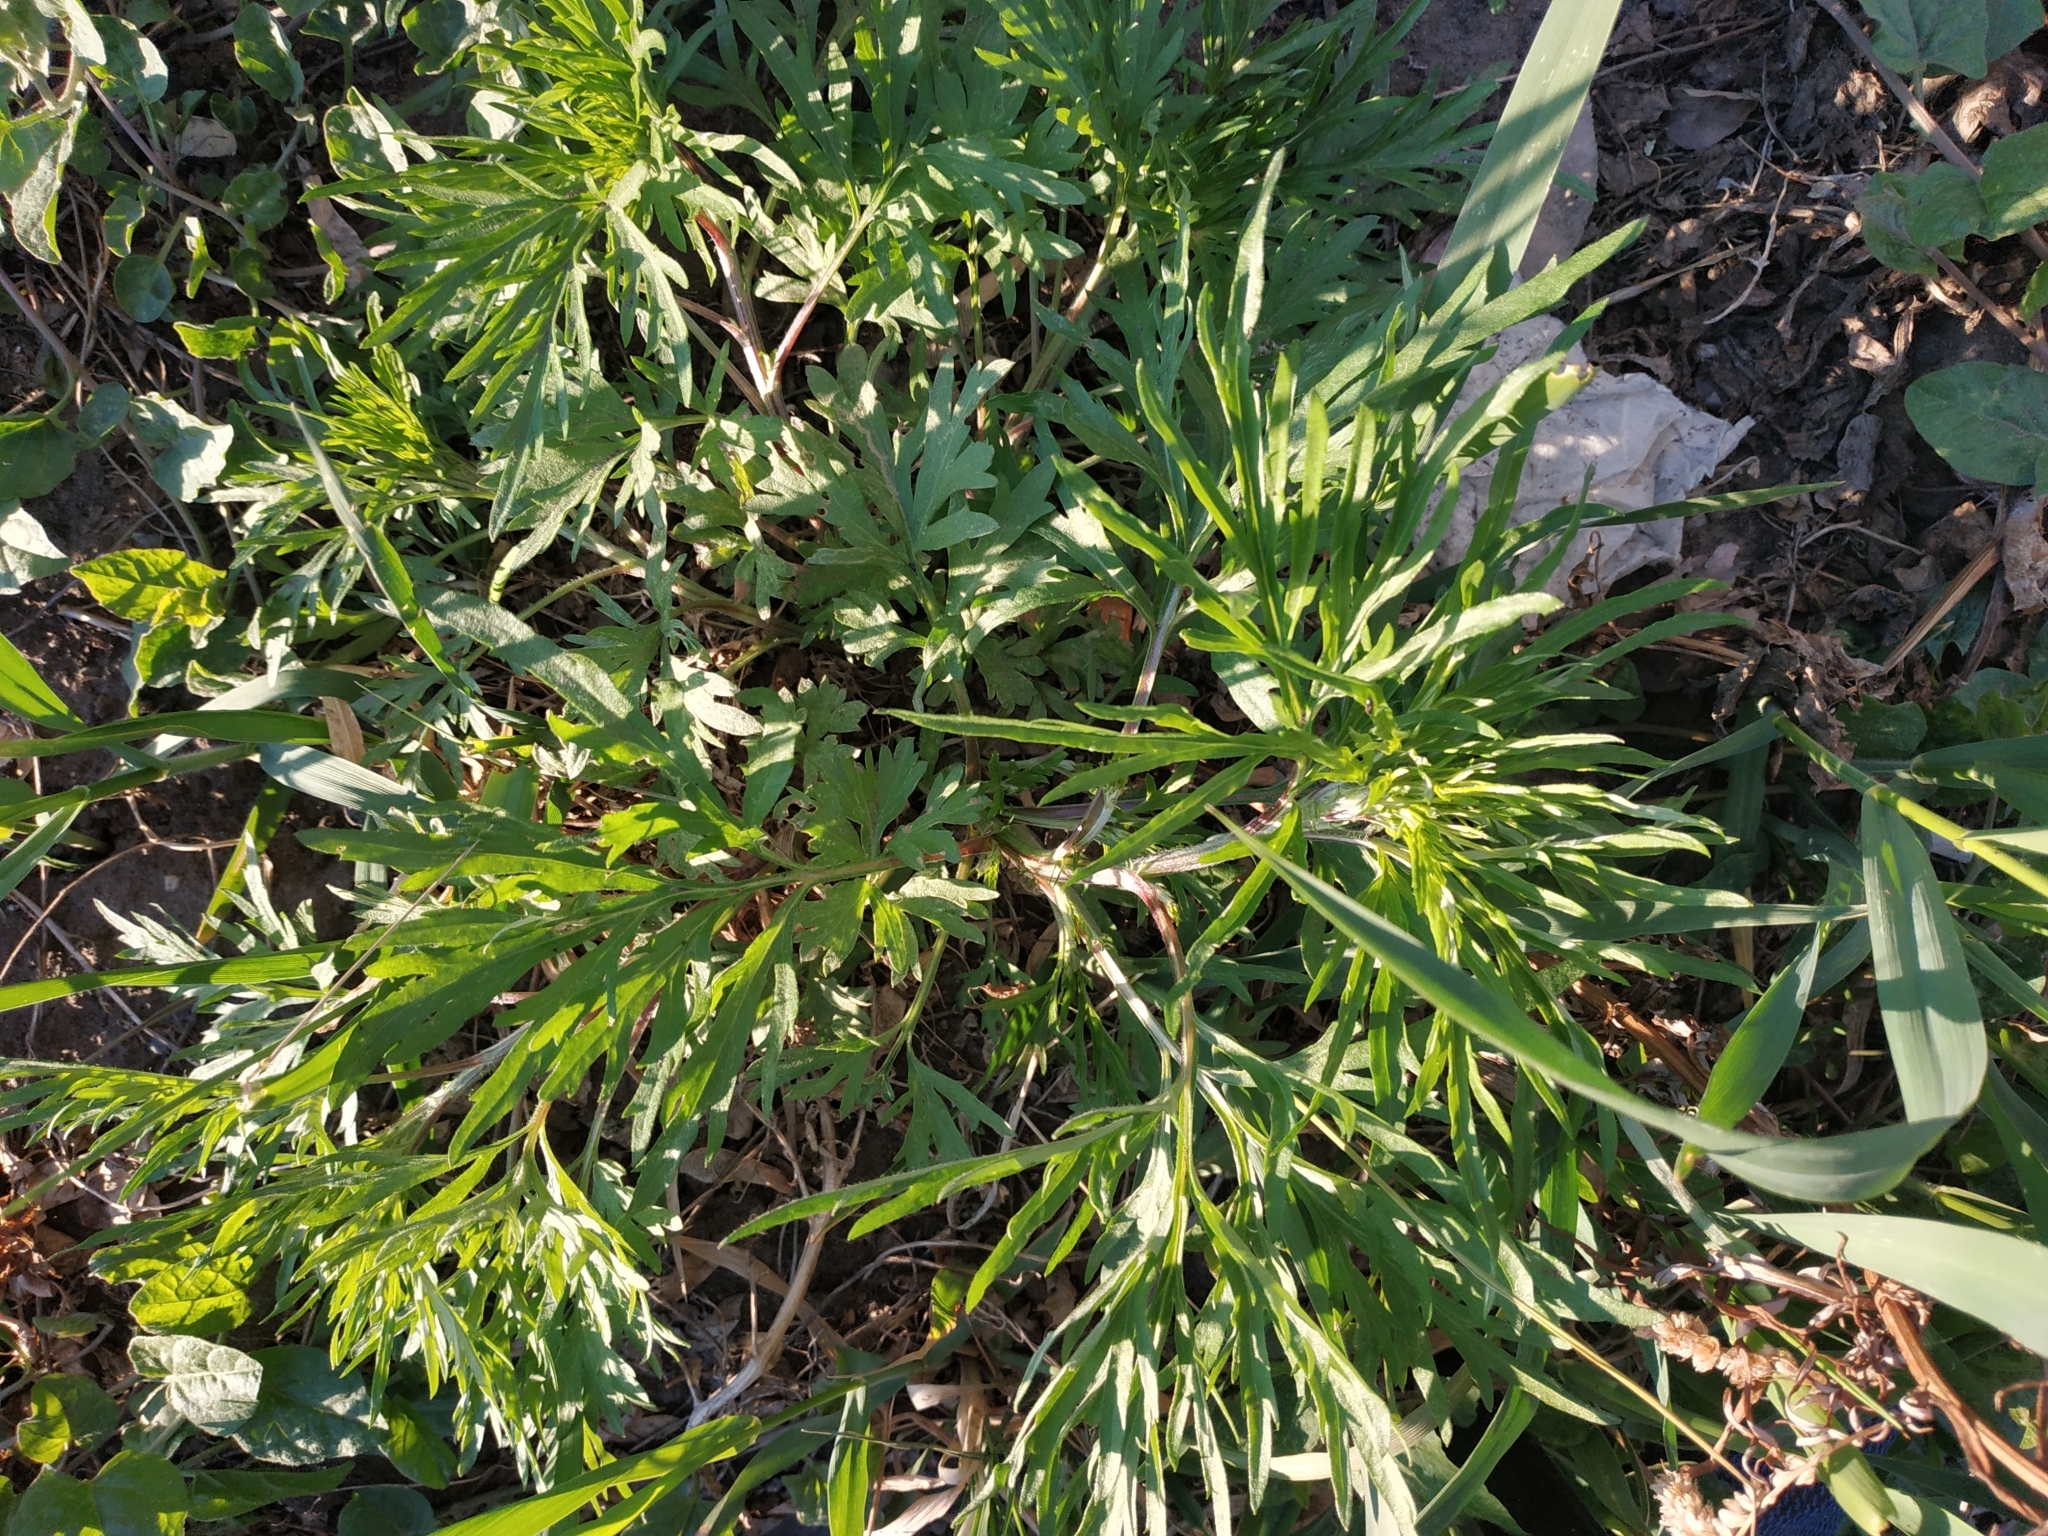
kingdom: Plantae
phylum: Tracheophyta
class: Magnoliopsida
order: Asterales
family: Asteraceae
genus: Artemisia
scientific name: Artemisia vulgaris
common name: Mugwort
